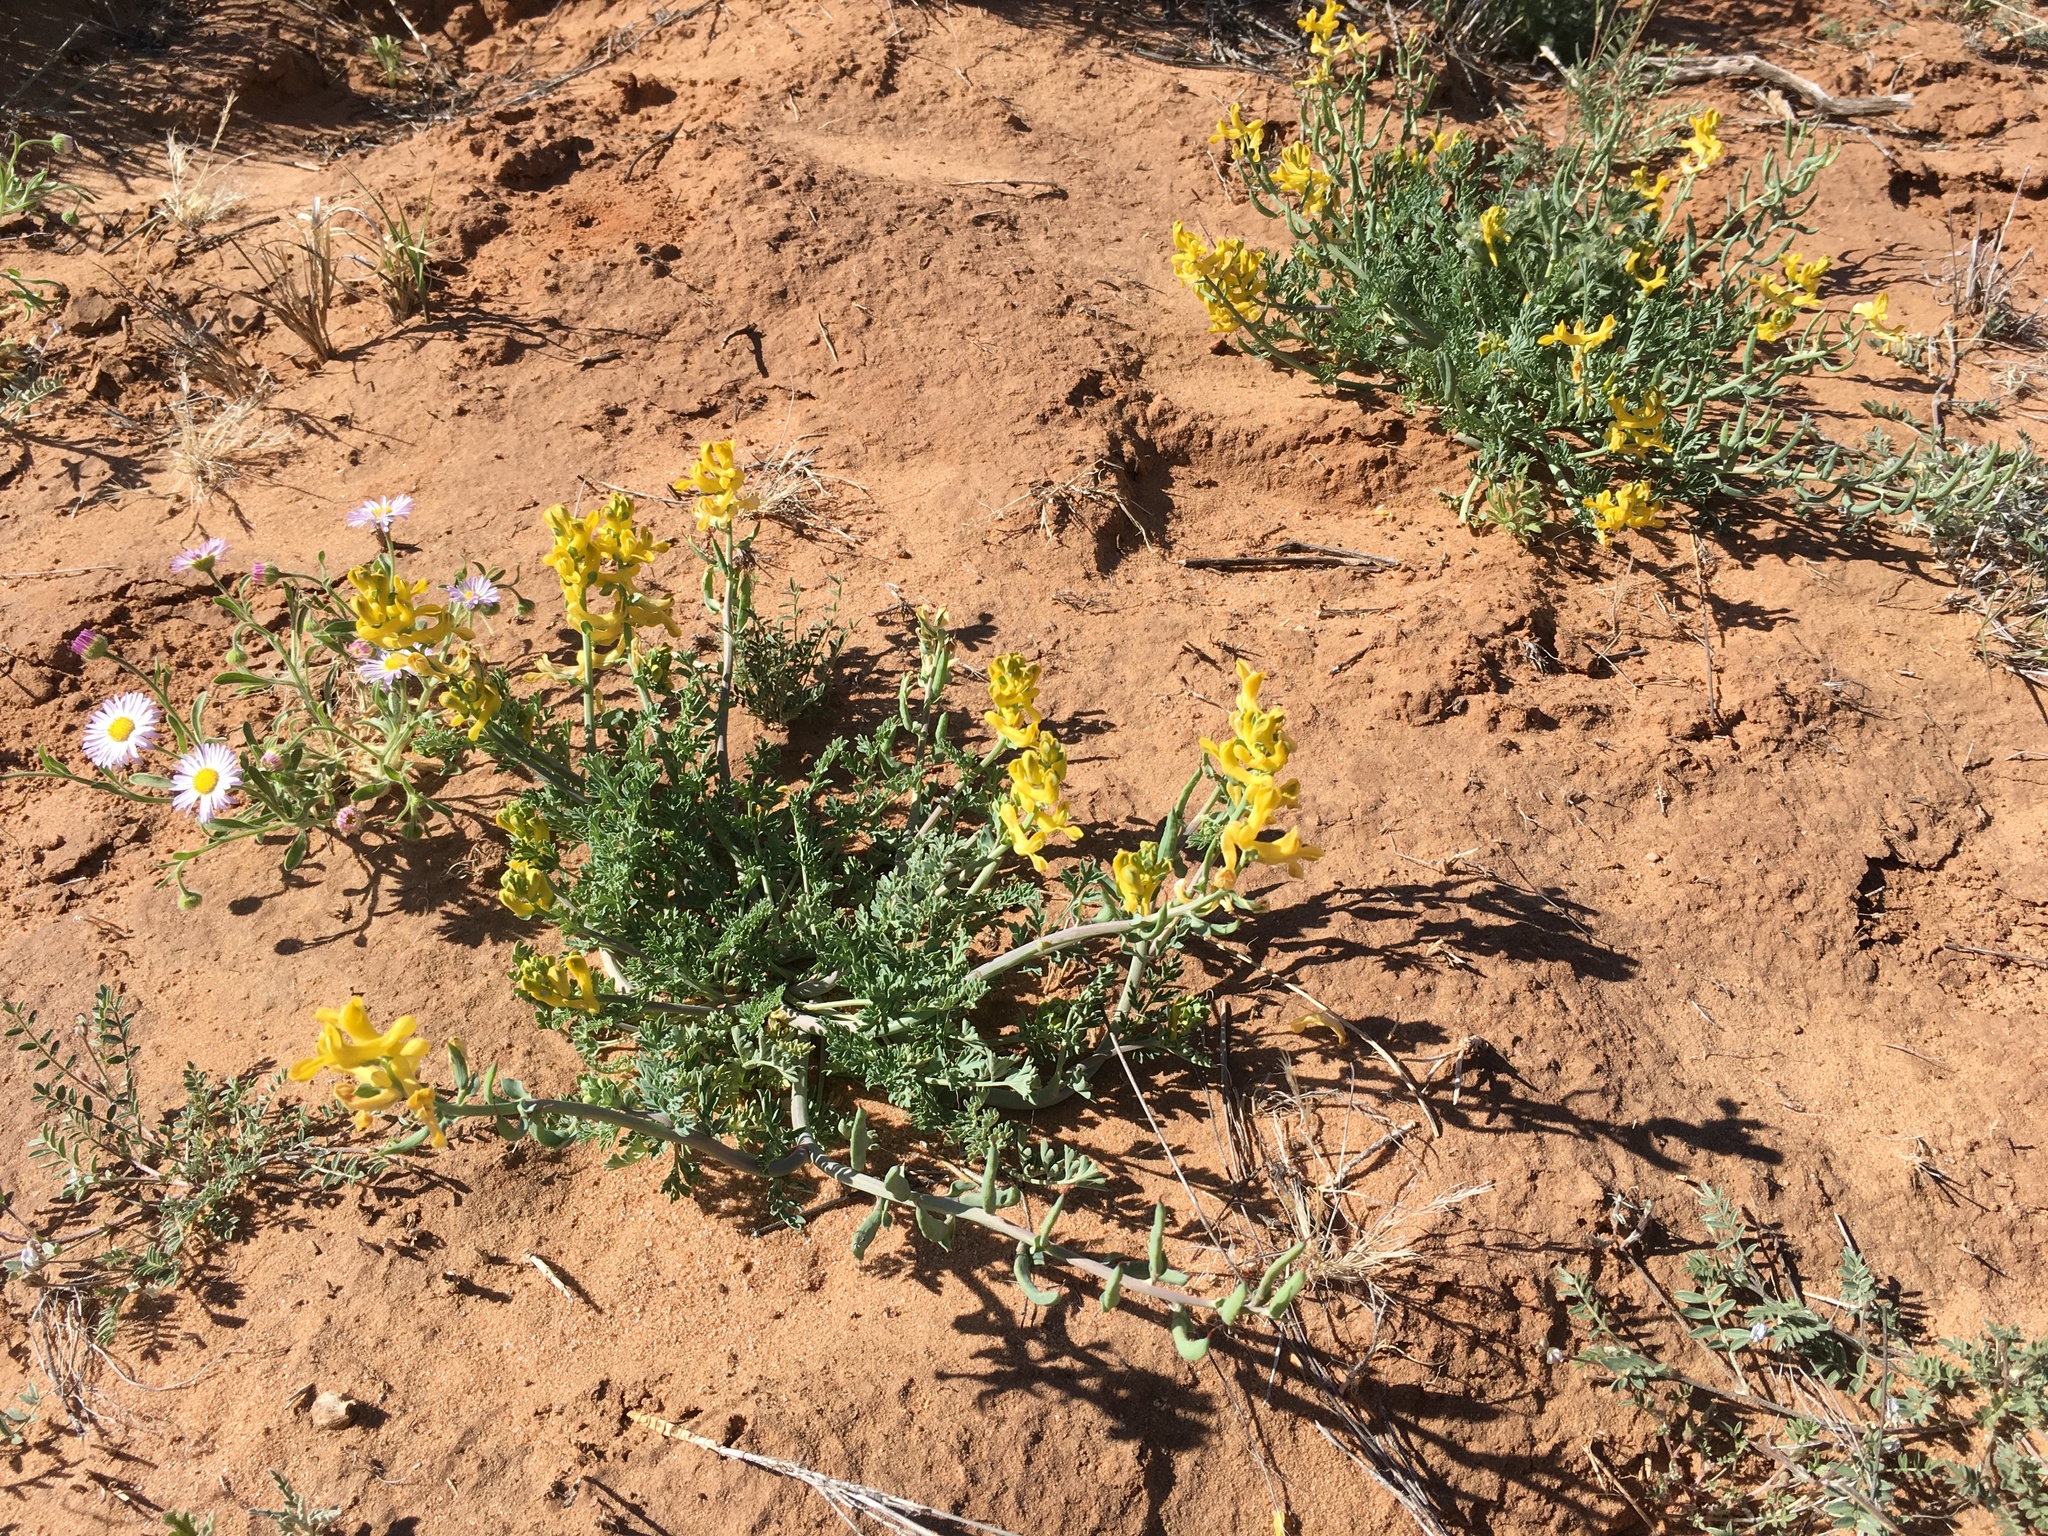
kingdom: Plantae
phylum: Tracheophyta
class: Magnoliopsida
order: Ranunculales
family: Papaveraceae
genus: Corydalis
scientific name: Corydalis aurea
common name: Golden corydalis
